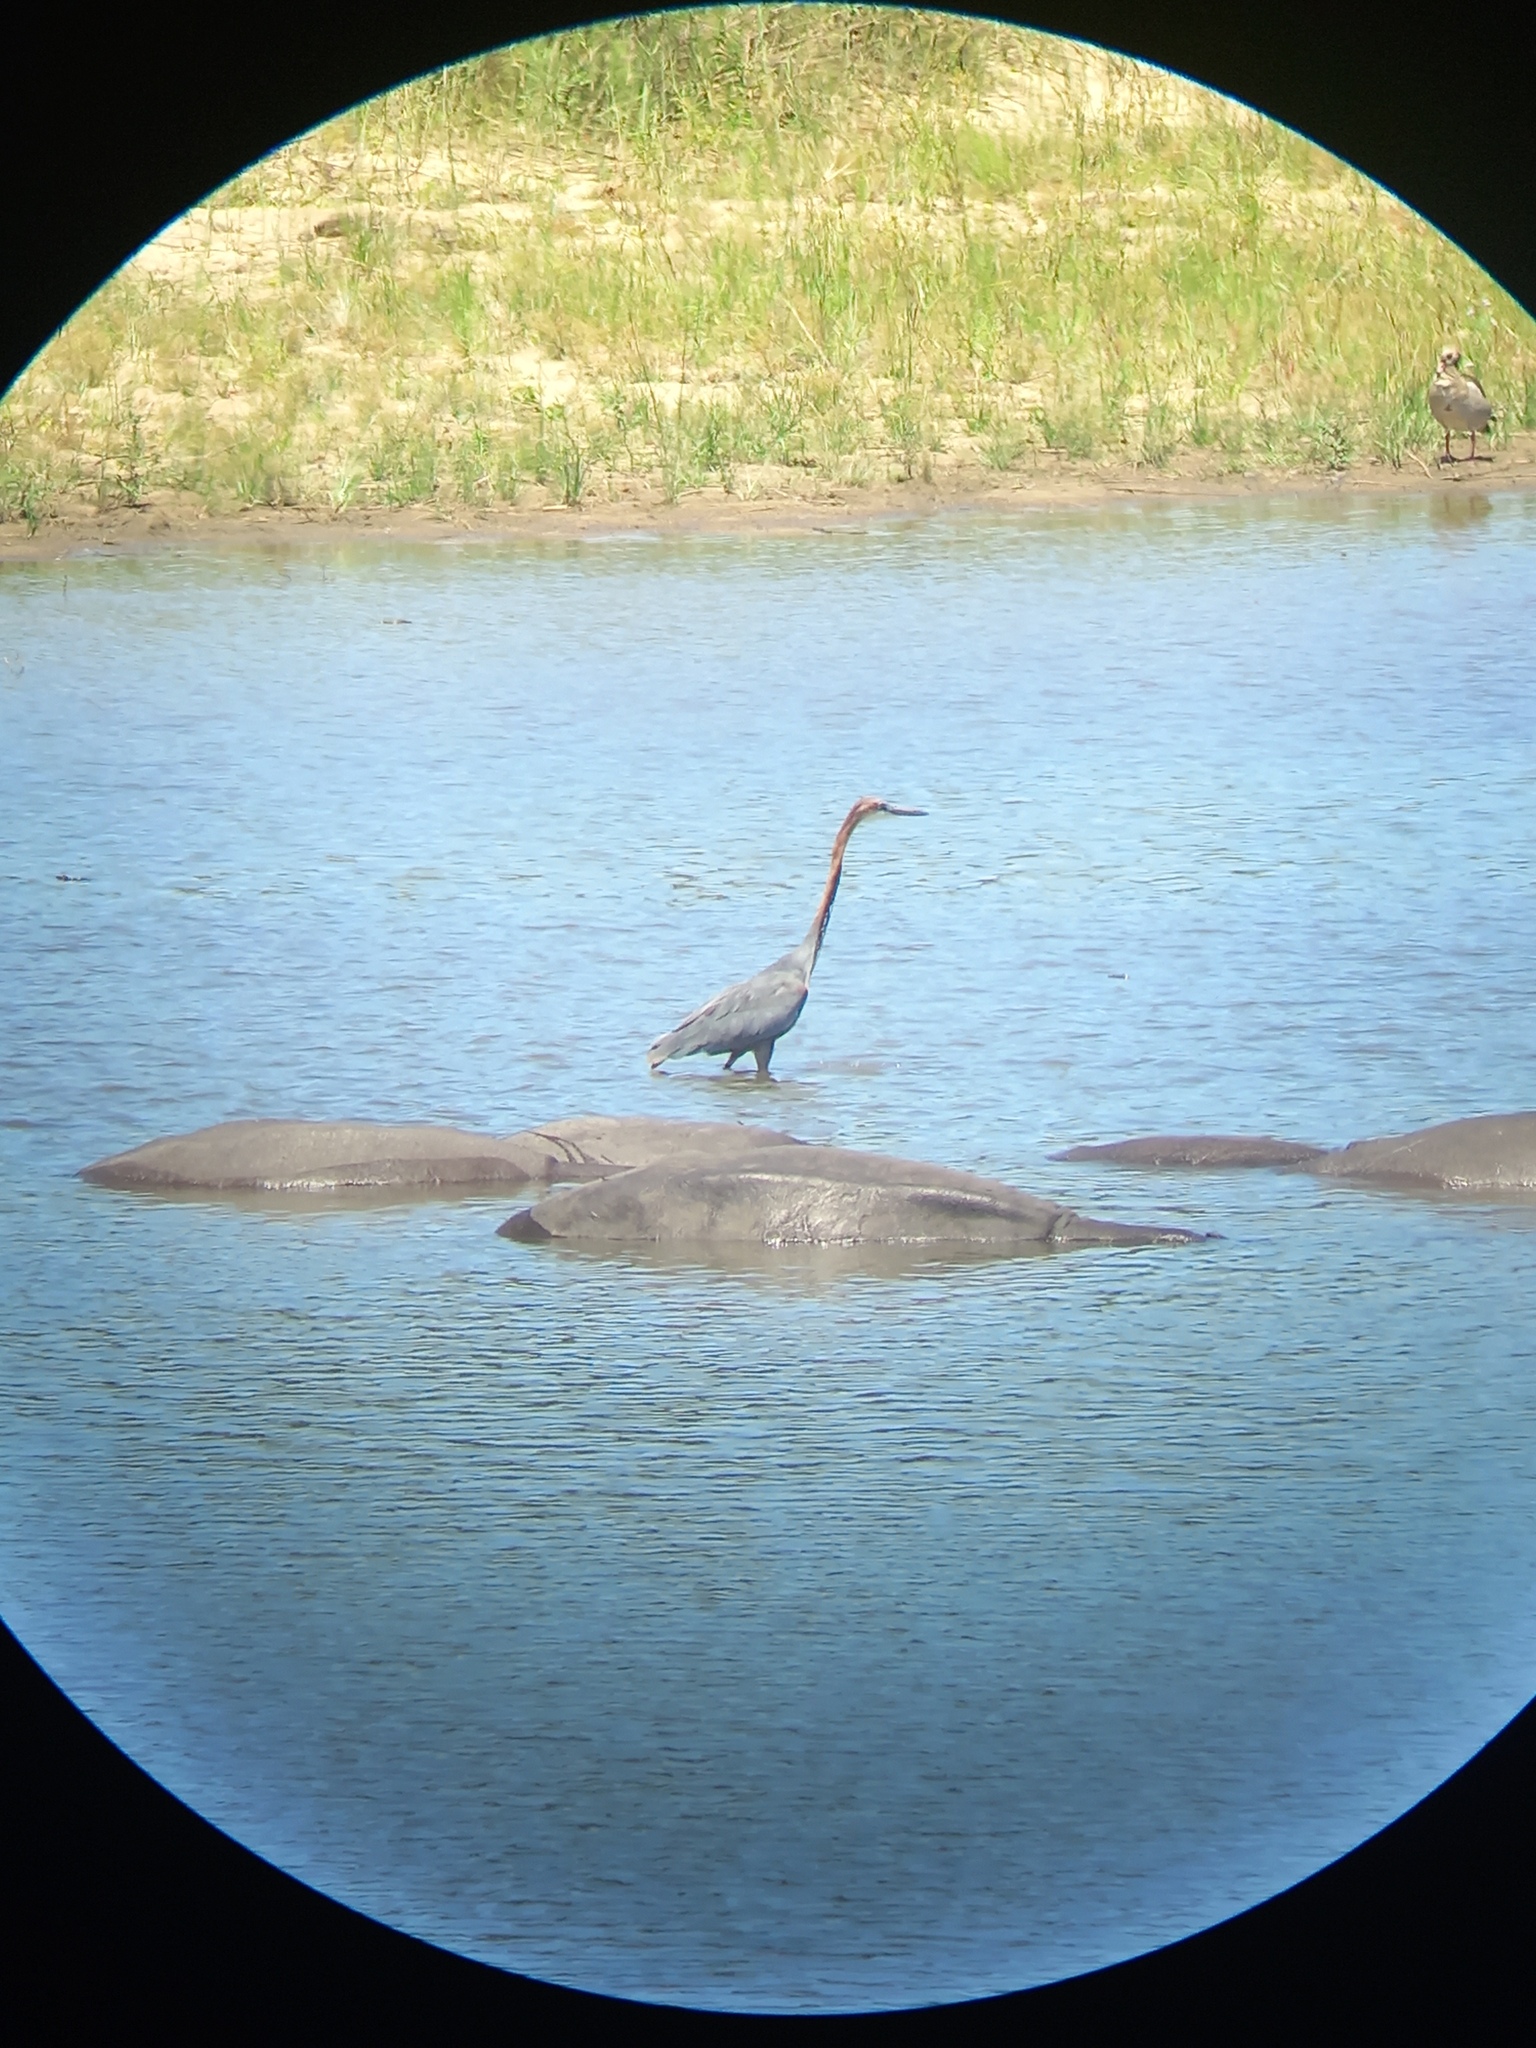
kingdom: Animalia
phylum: Chordata
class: Aves
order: Pelecaniformes
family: Ardeidae
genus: Ardea
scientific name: Ardea goliath
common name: Goliath heron
